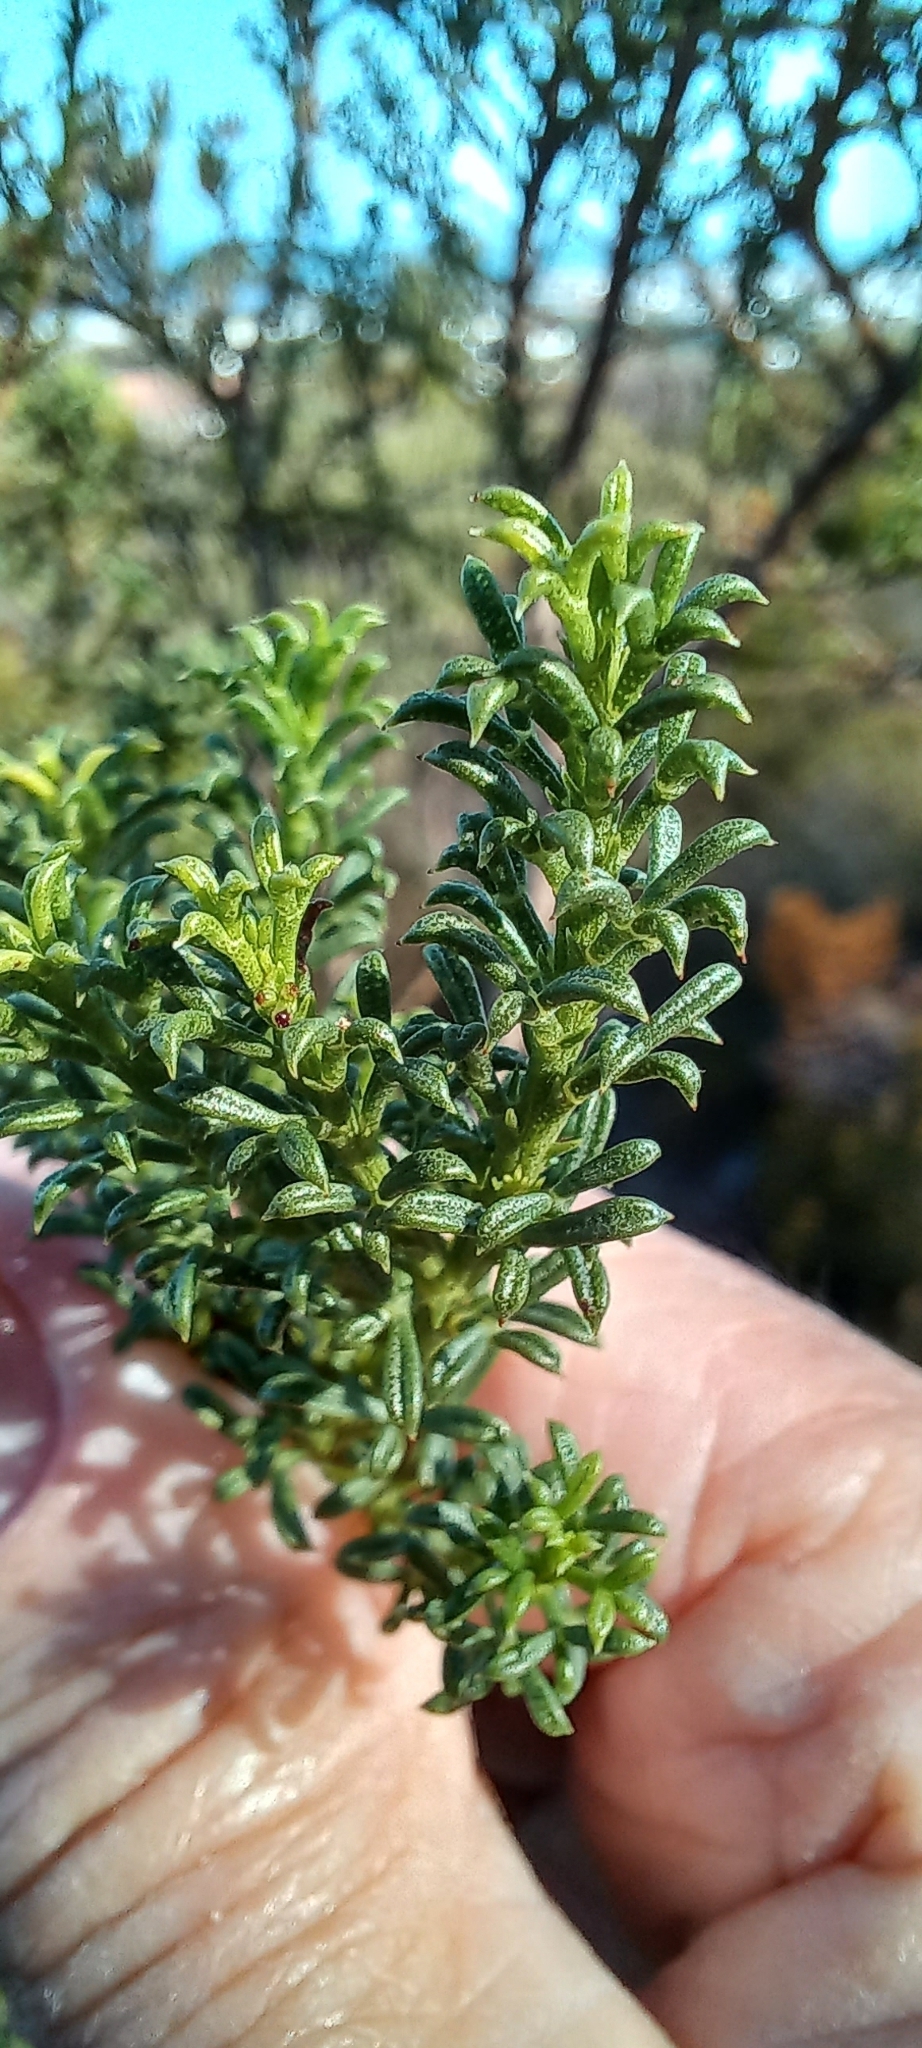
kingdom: Plantae
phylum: Tracheophyta
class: Magnoliopsida
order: Fabales
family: Fabaceae
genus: Psoralea
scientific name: Psoralea aculeata
